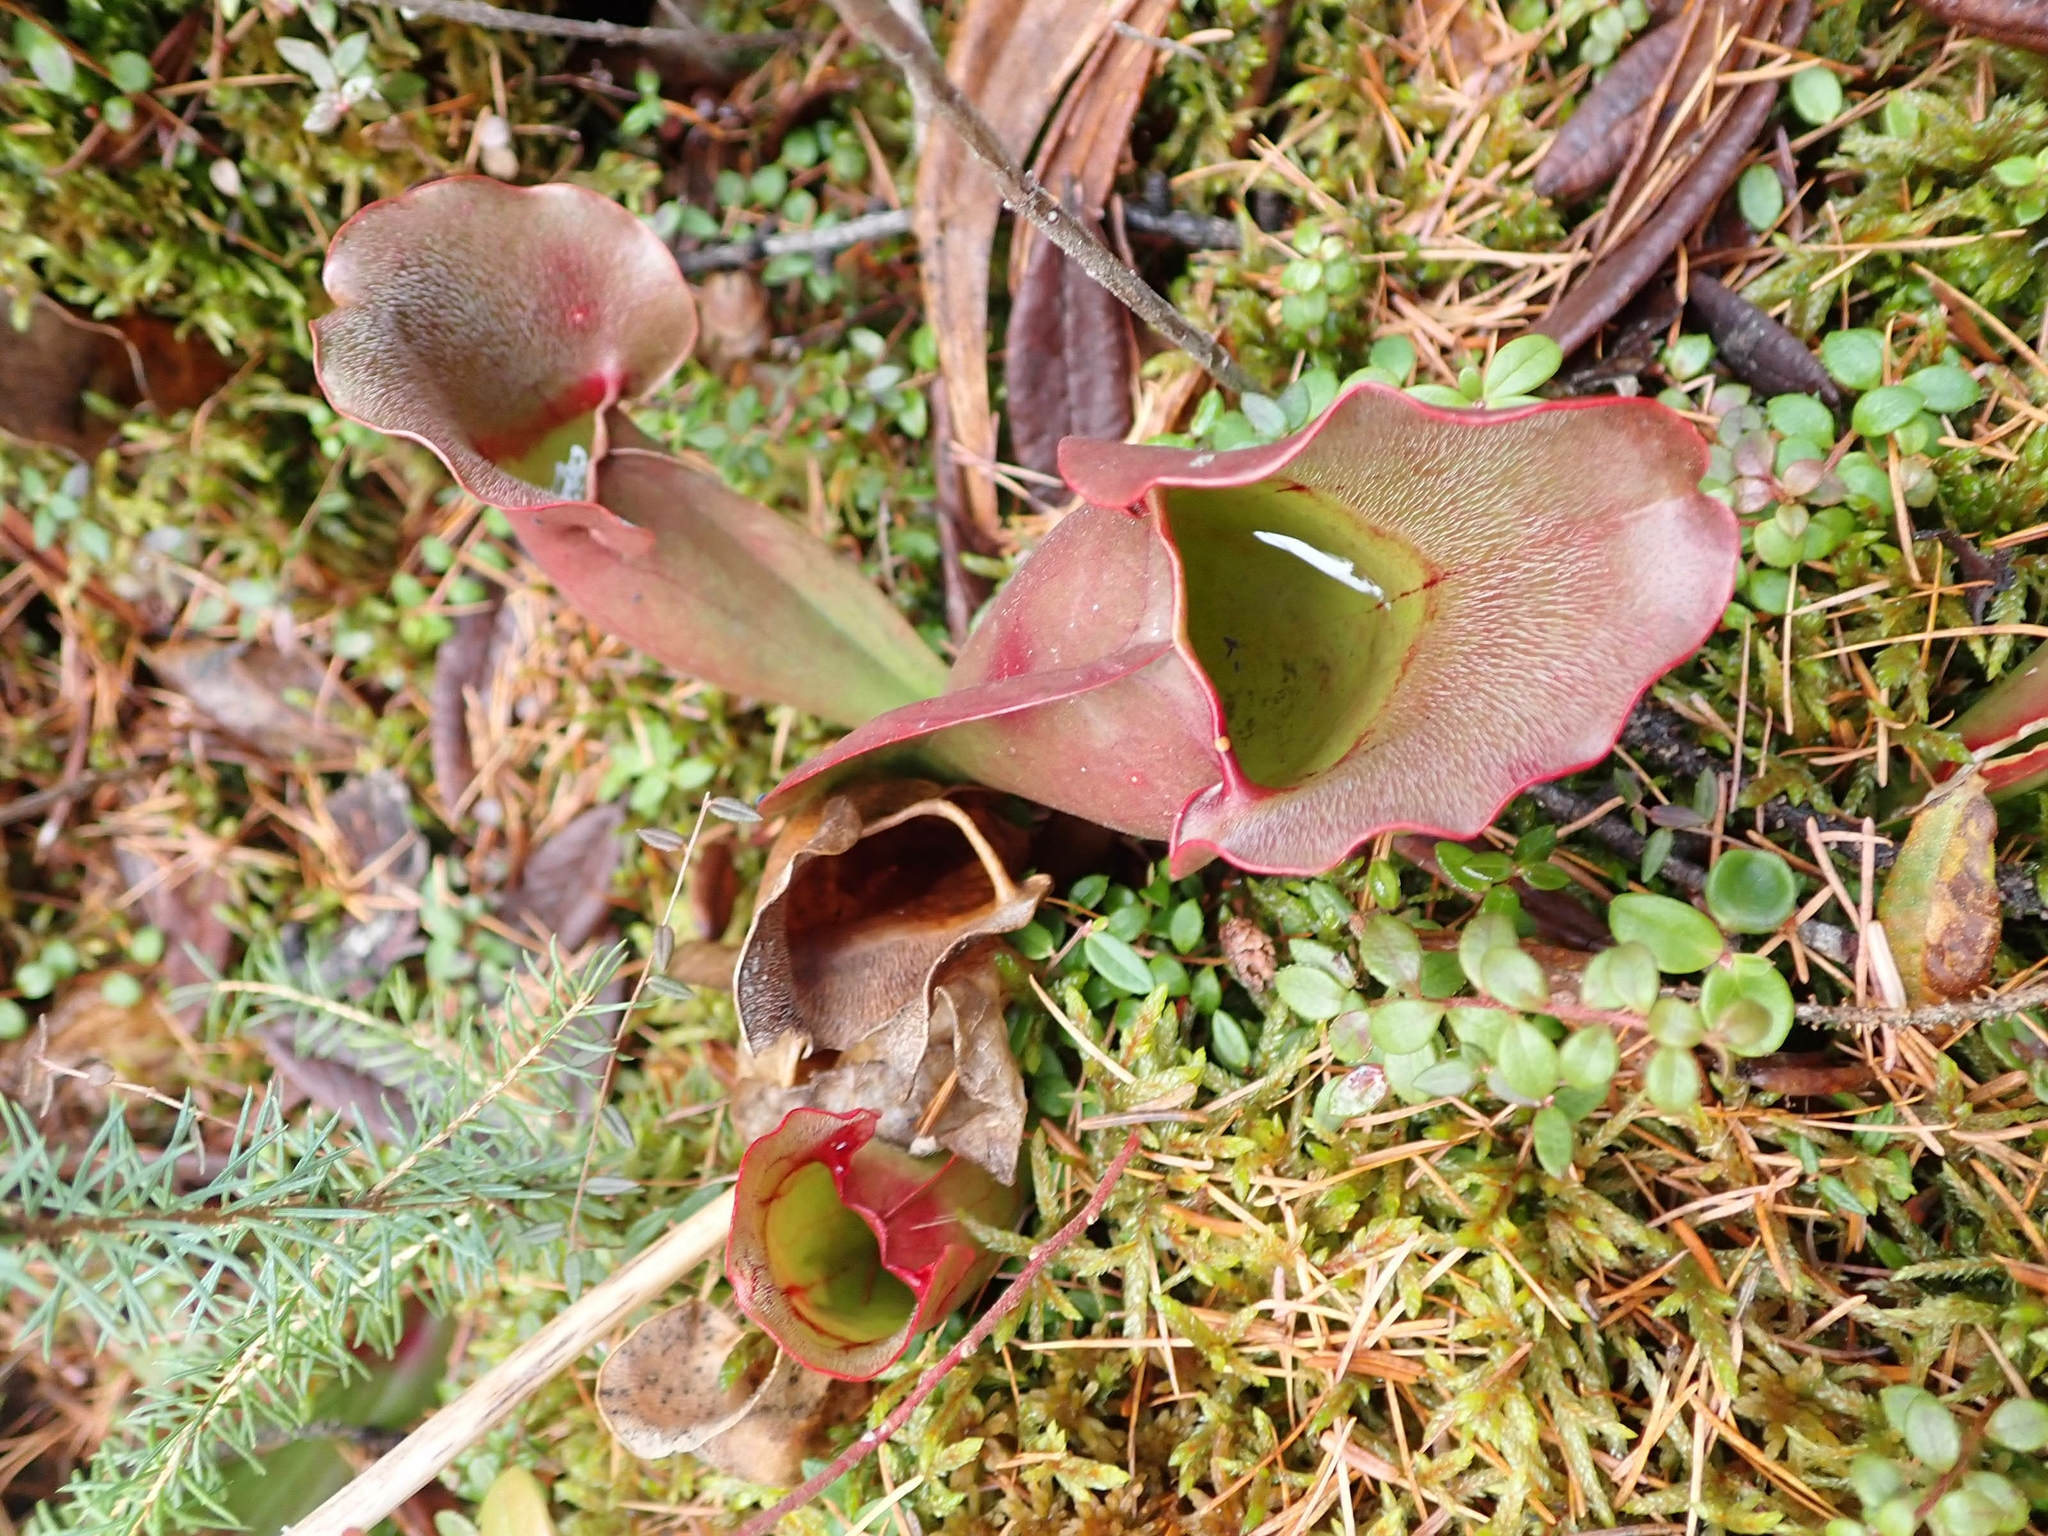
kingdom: Plantae
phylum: Tracheophyta
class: Magnoliopsida
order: Ericales
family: Sarraceniaceae
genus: Sarracenia
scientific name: Sarracenia purpurea
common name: Pitcherplant
